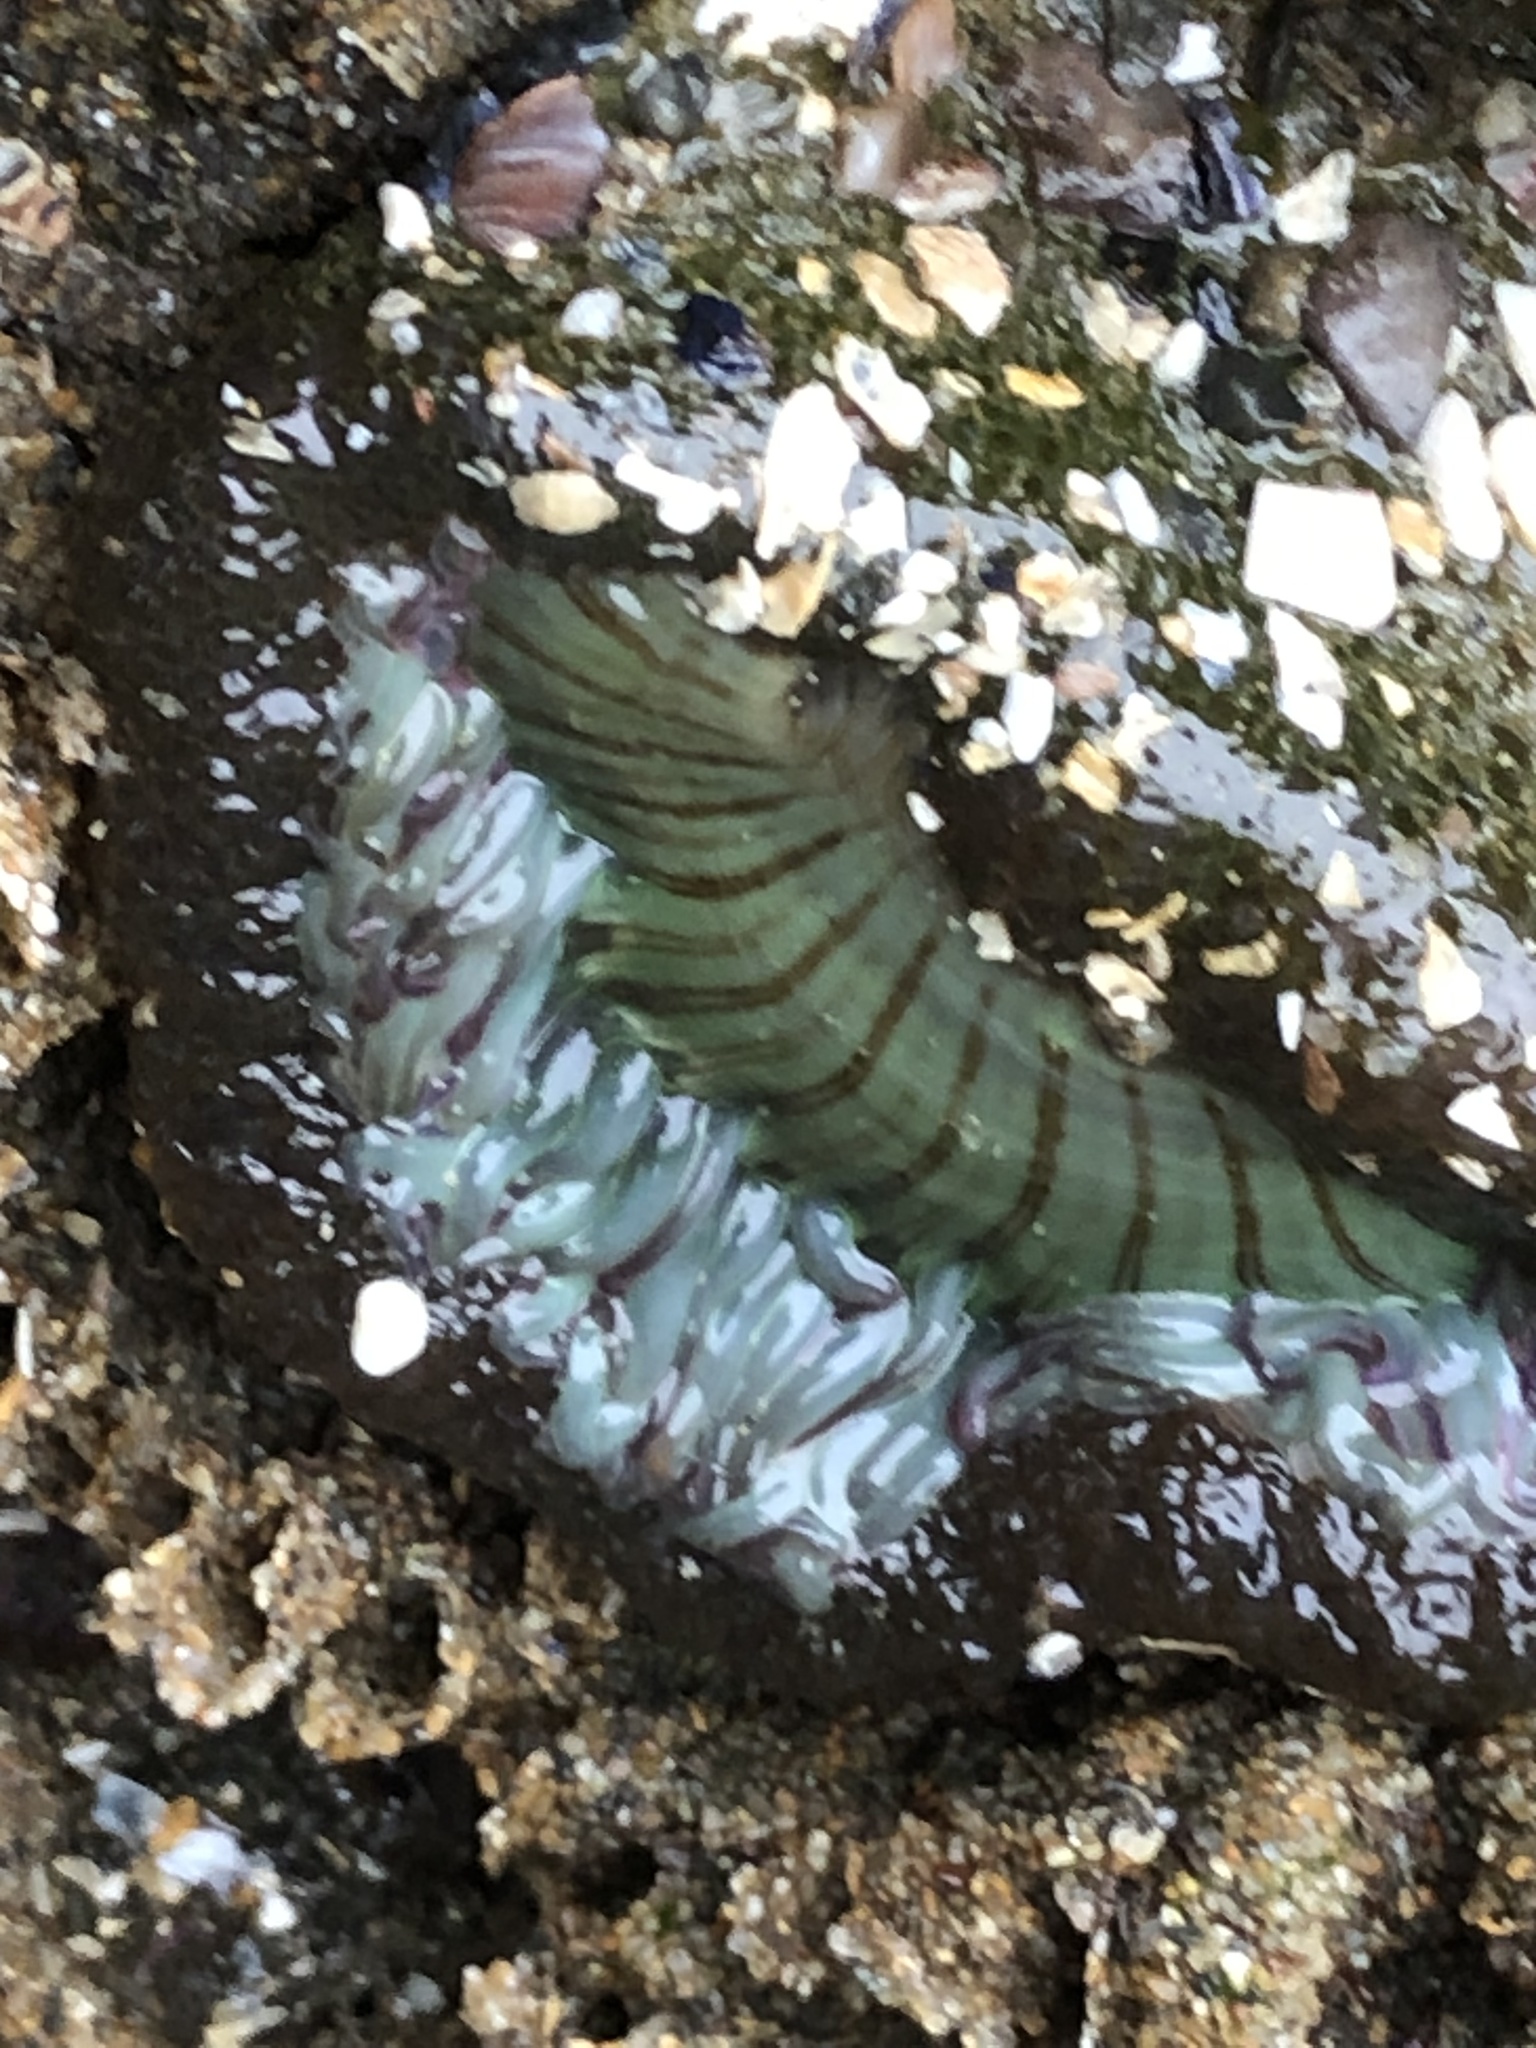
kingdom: Animalia
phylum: Cnidaria
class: Anthozoa
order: Actiniaria
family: Actiniidae
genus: Anthopleura
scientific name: Anthopleura sola
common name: Sun anemone
